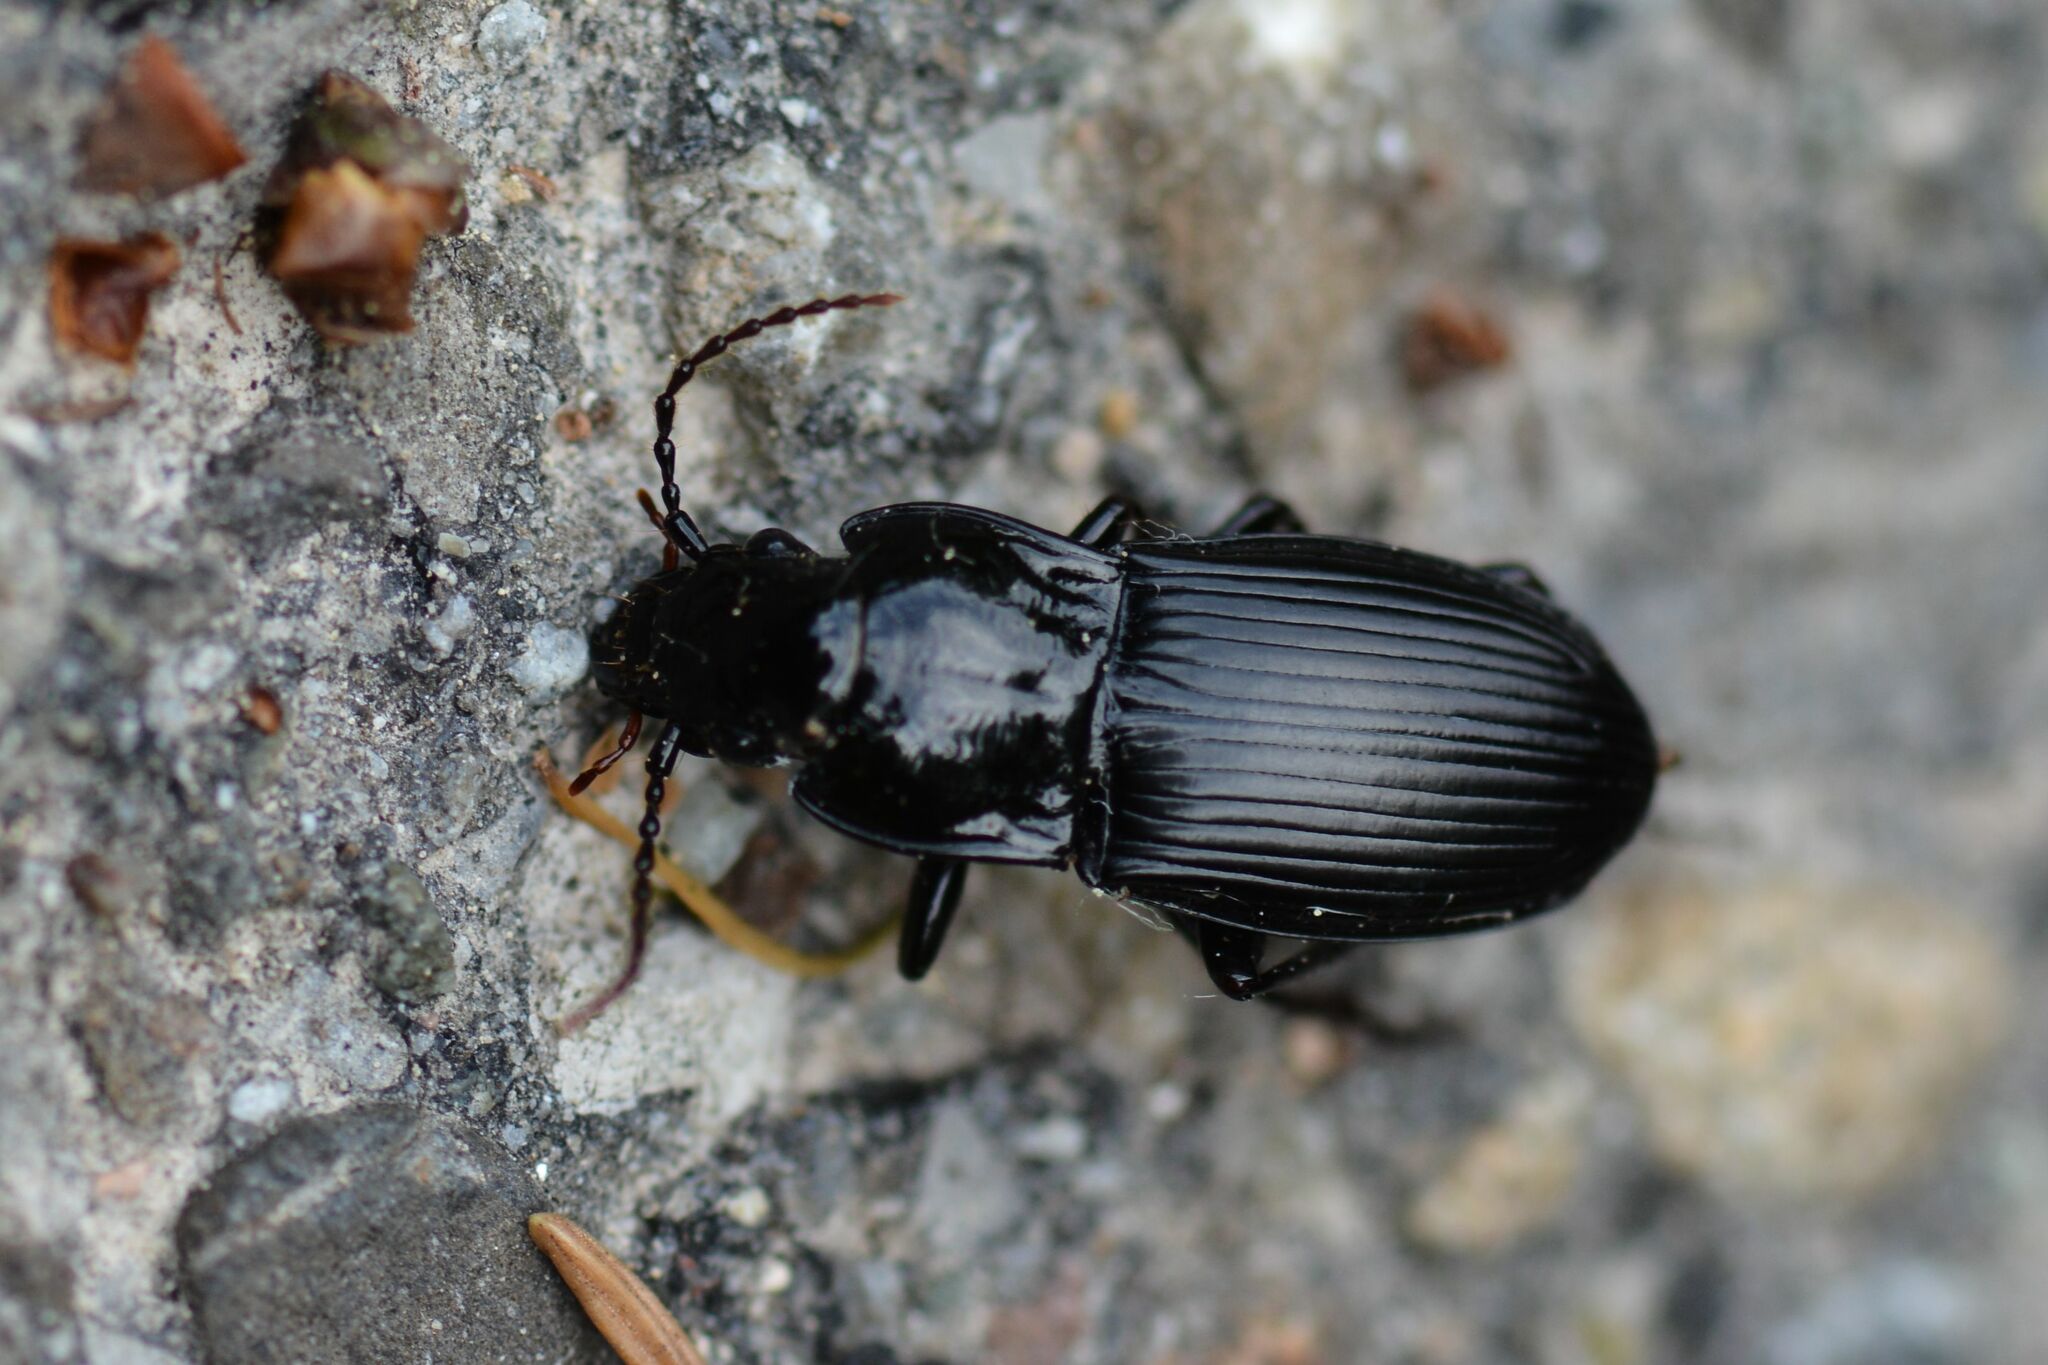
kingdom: Animalia
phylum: Arthropoda
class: Insecta
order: Coleoptera
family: Carabidae
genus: Abax
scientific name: Abax parallelepipedus
